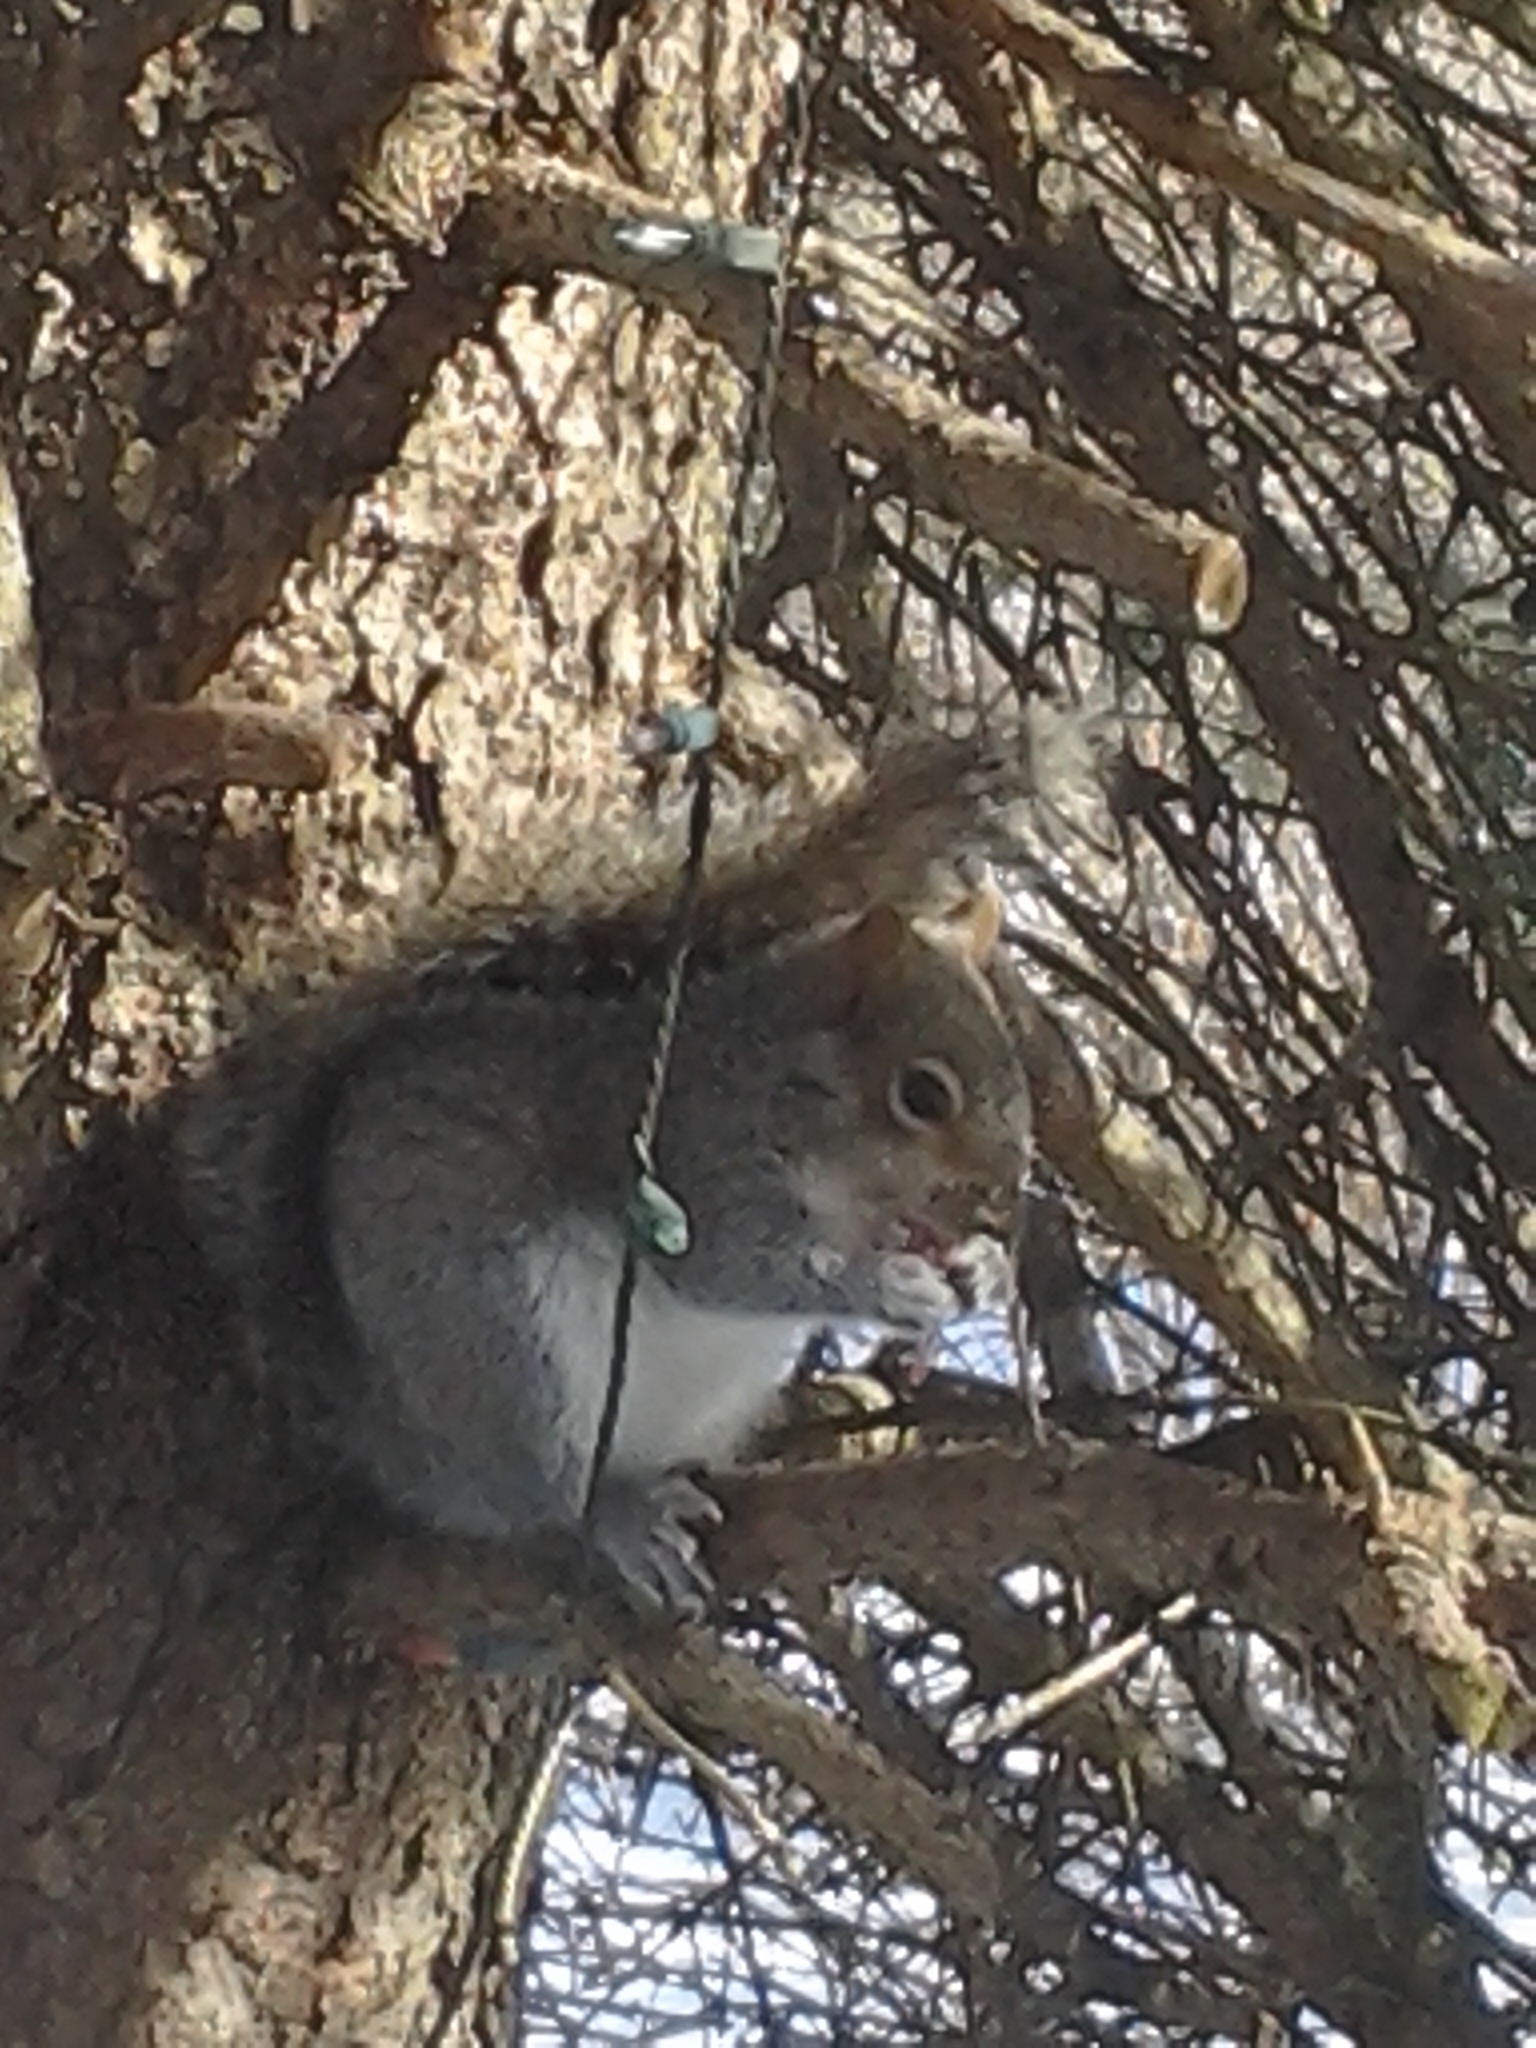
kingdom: Animalia
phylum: Chordata
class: Mammalia
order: Rodentia
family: Sciuridae
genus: Sciurus
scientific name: Sciurus carolinensis
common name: Eastern gray squirrel
